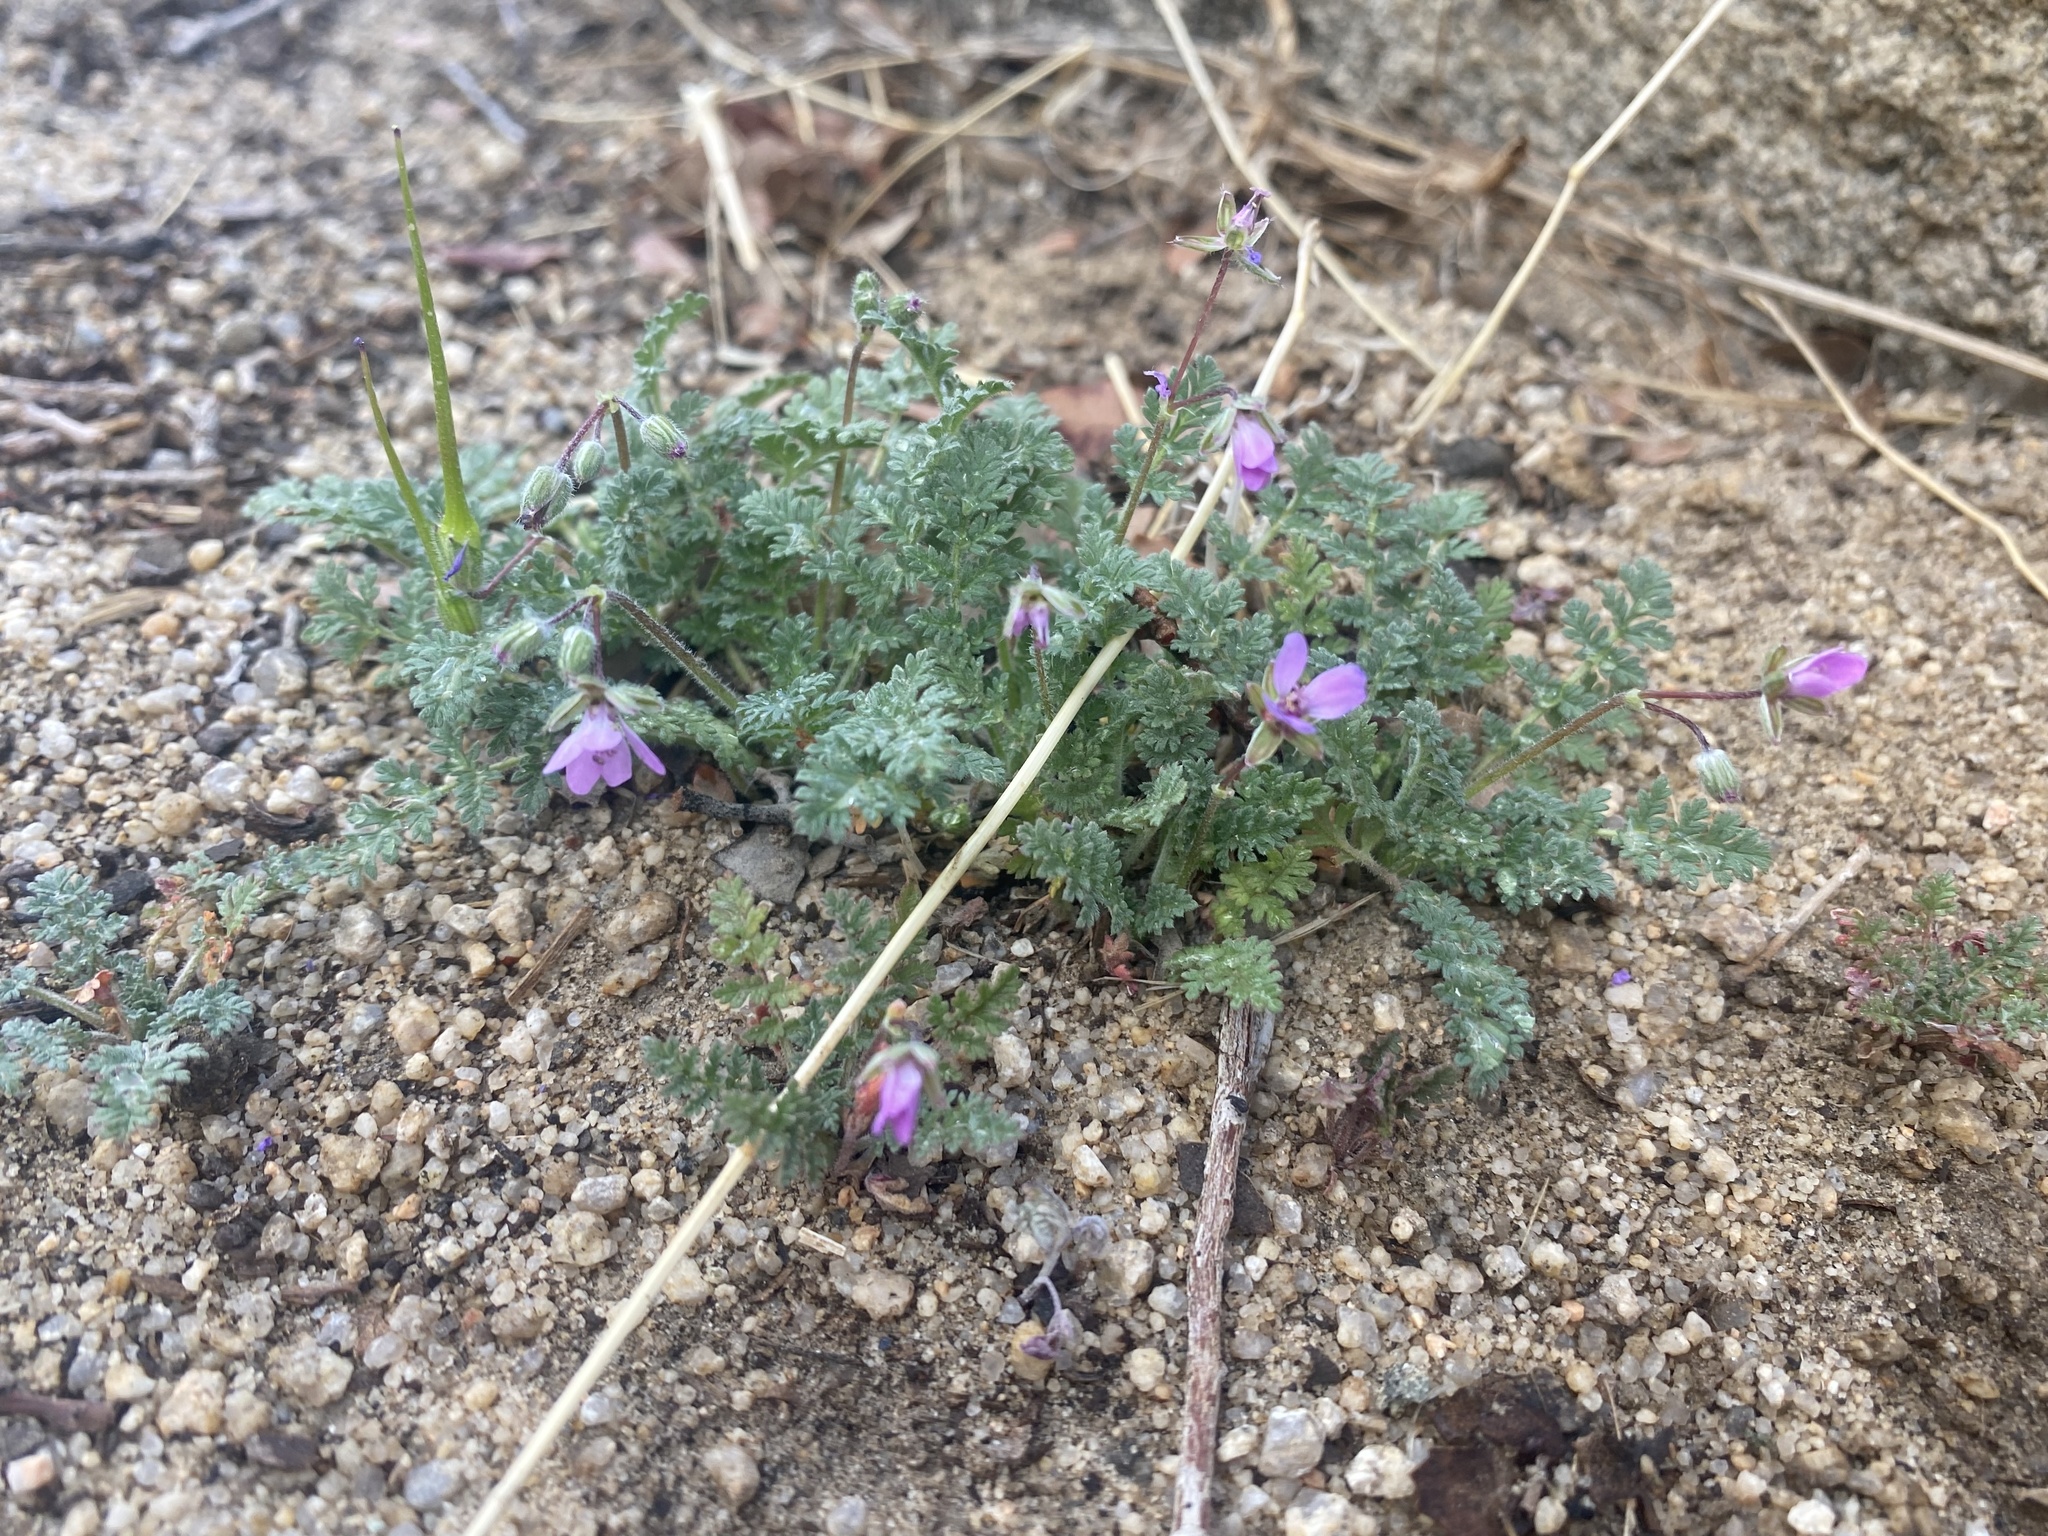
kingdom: Plantae
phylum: Tracheophyta
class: Magnoliopsida
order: Geraniales
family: Geraniaceae
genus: Erodium
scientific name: Erodium cicutarium
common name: Common stork's-bill
